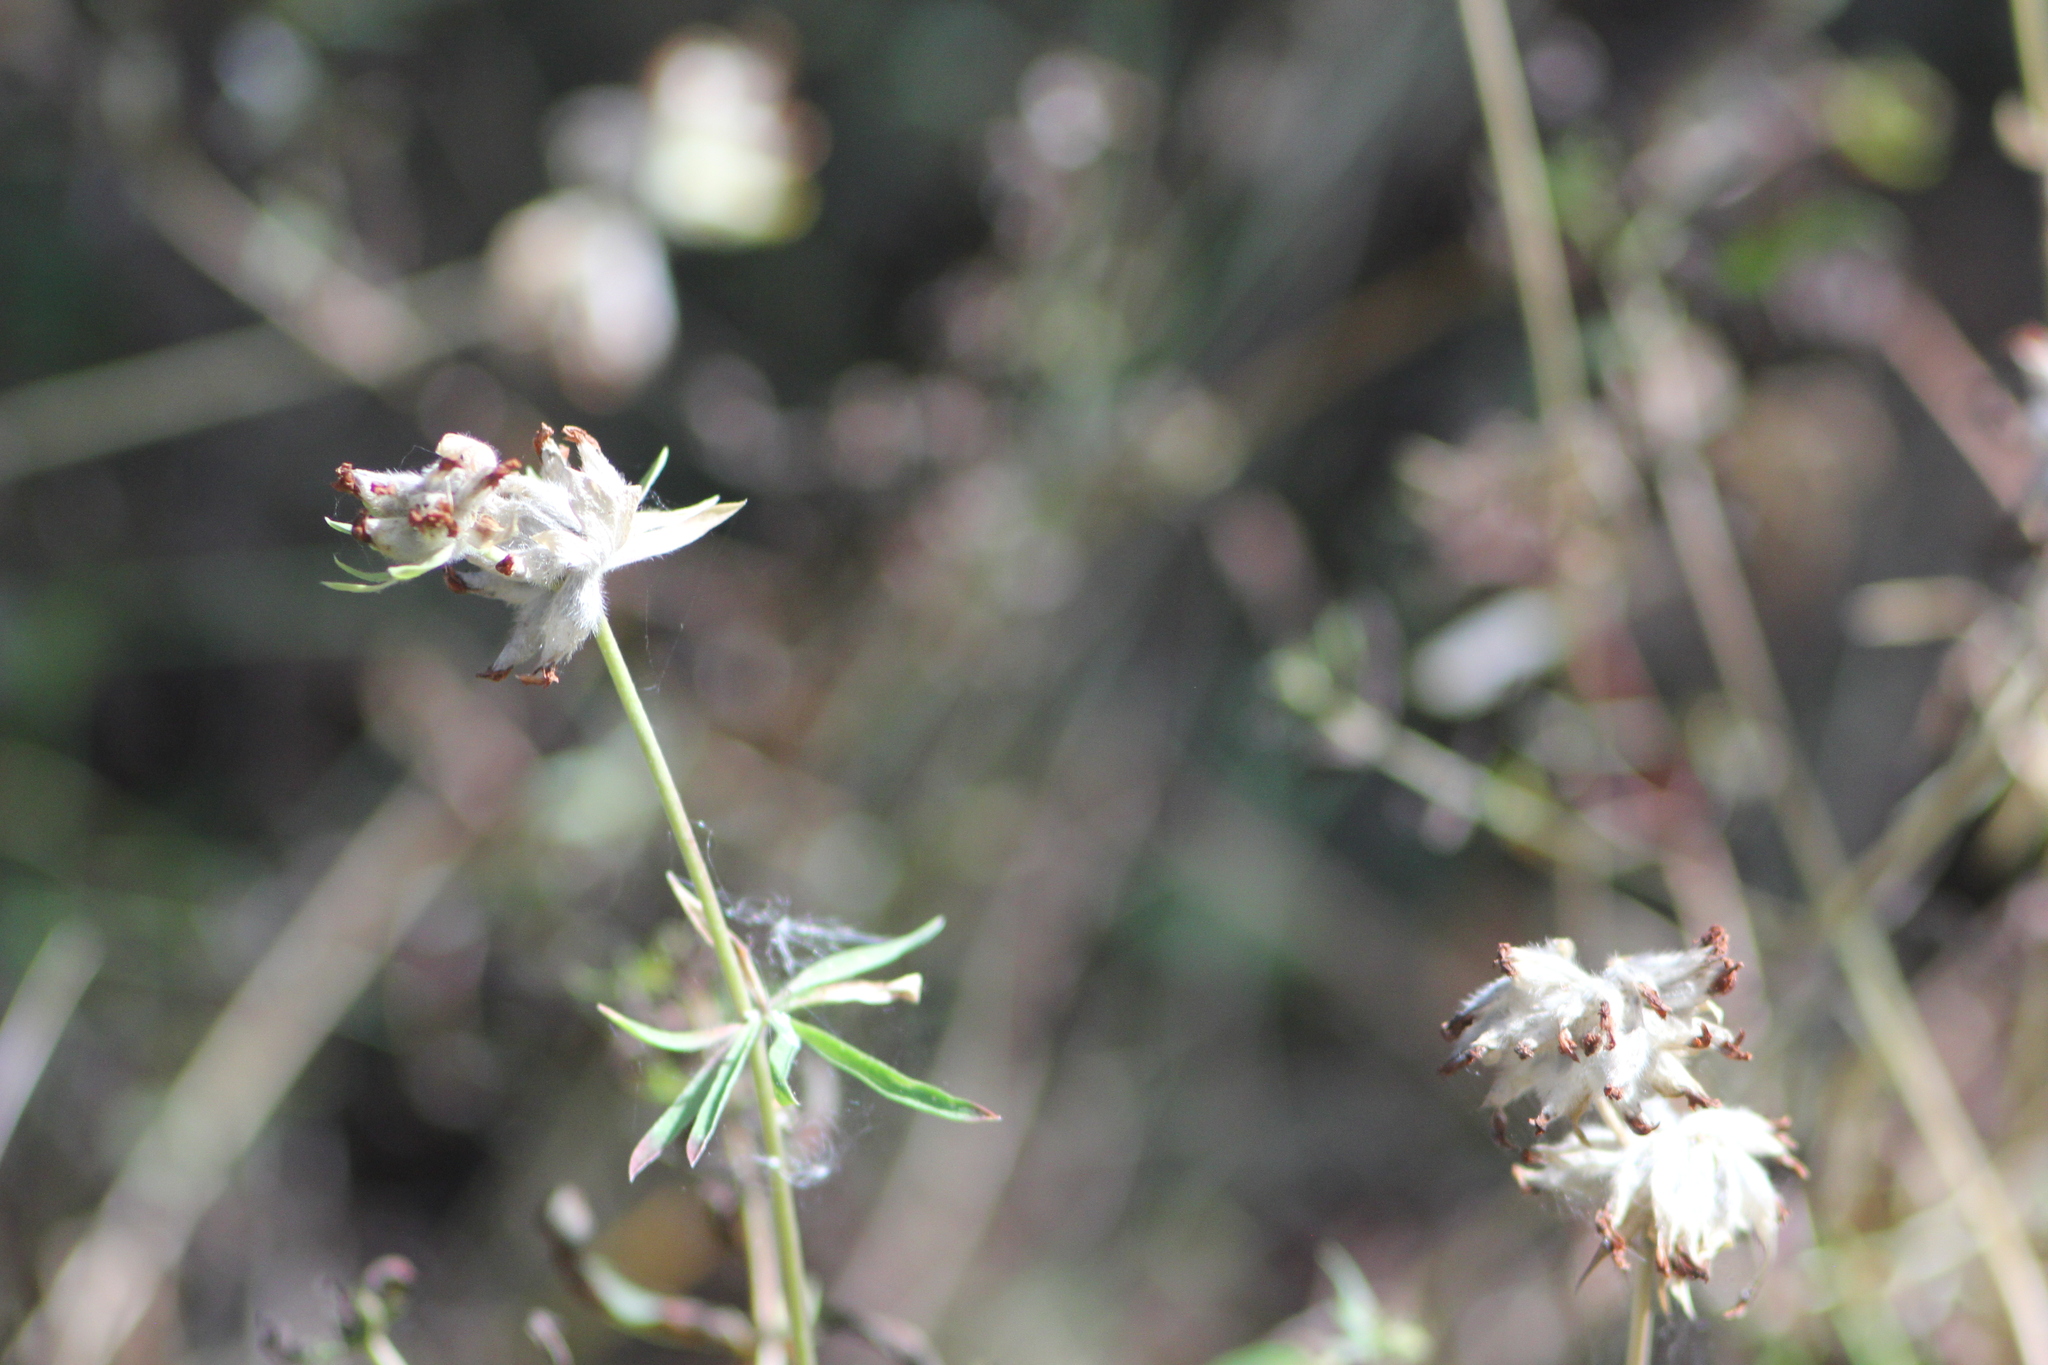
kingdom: Plantae
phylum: Tracheophyta
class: Magnoliopsida
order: Fabales
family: Fabaceae
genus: Anthyllis
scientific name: Anthyllis vulneraria
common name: Kidney vetch
